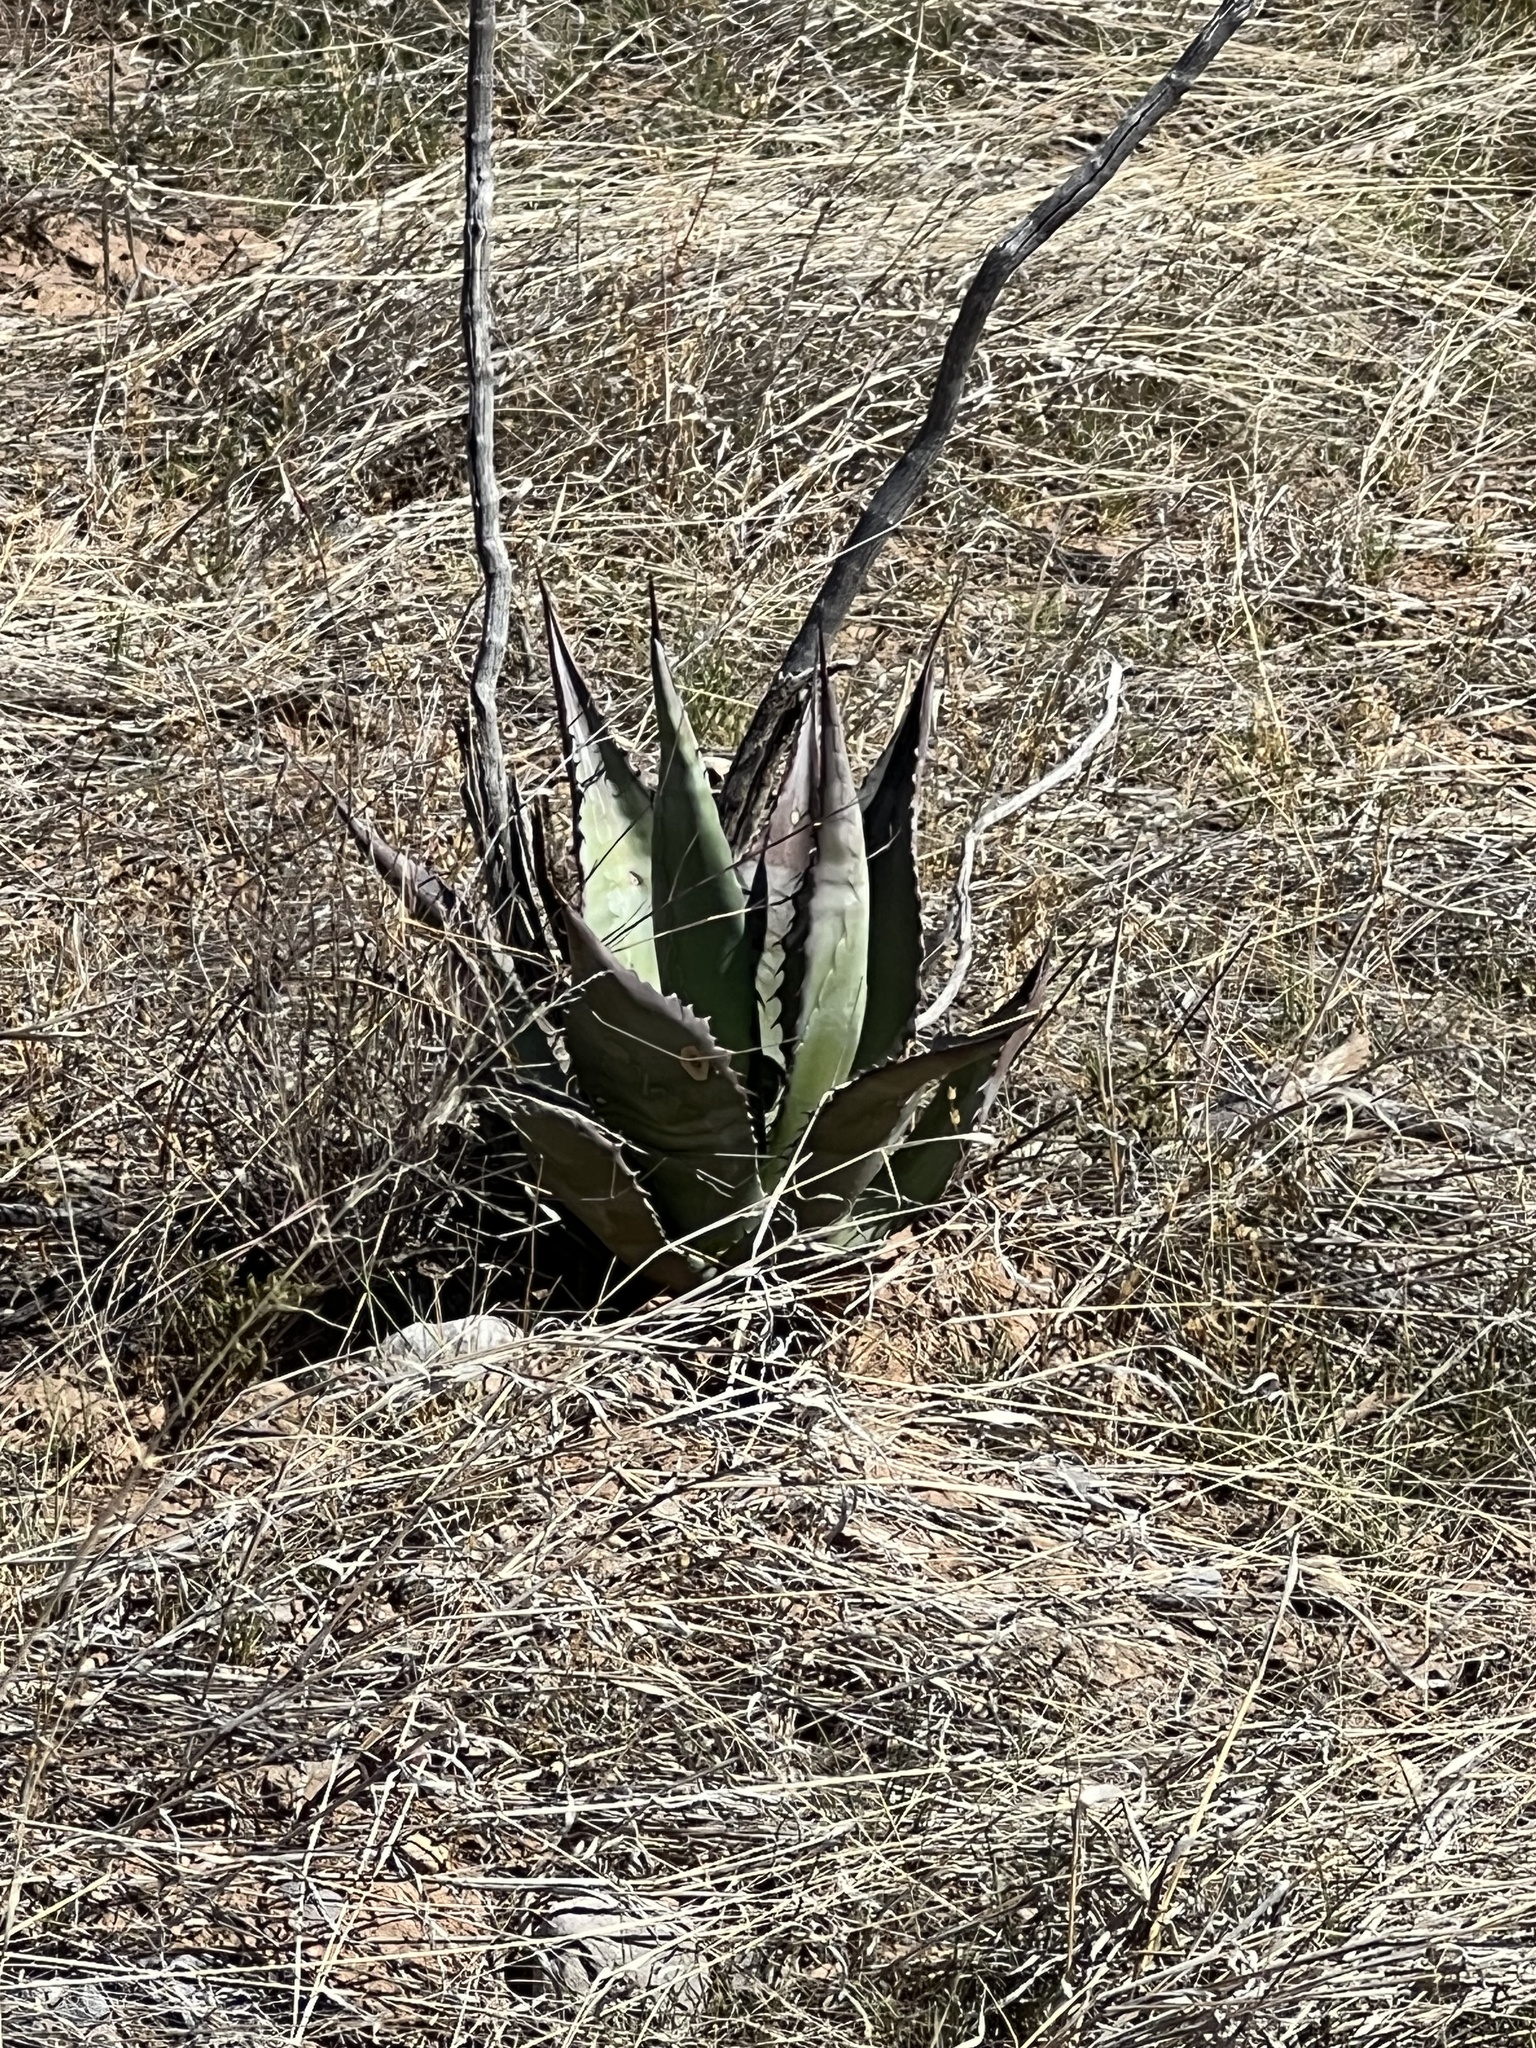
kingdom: Plantae
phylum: Tracheophyta
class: Liliopsida
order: Asparagales
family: Asparagaceae
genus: Agave
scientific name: Agave palmeri
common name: Palmer agave
